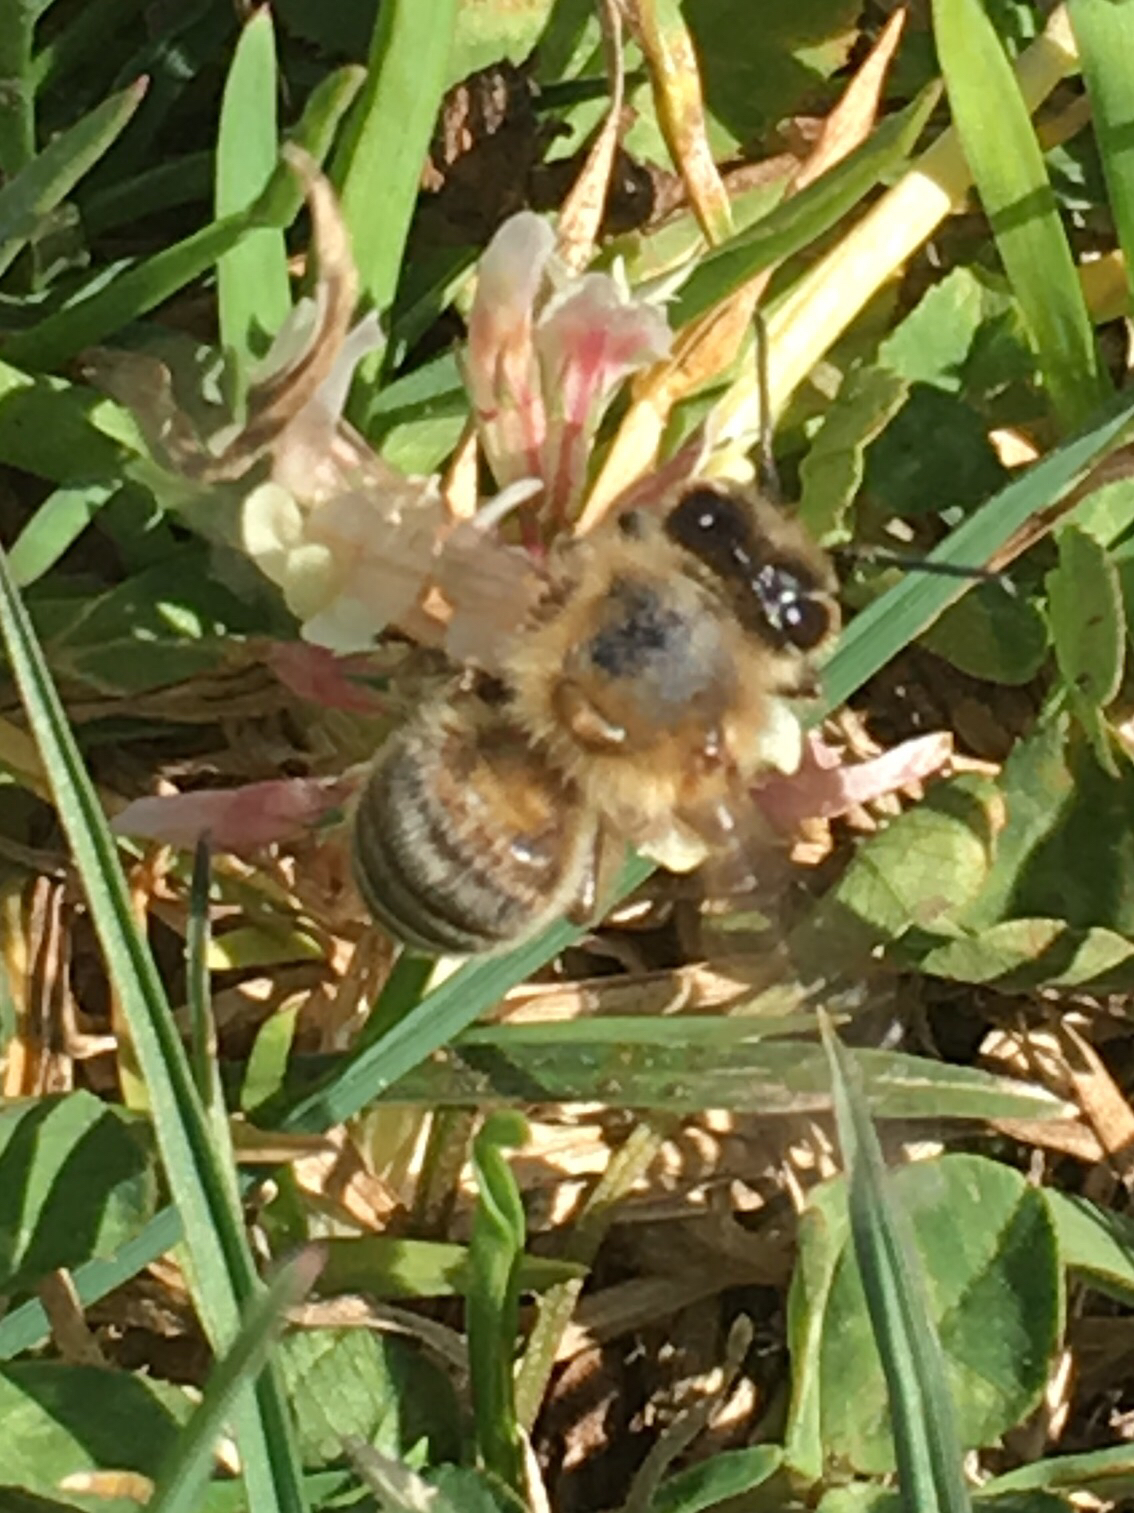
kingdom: Animalia
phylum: Arthropoda
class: Insecta
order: Hymenoptera
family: Apidae
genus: Apis
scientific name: Apis mellifera
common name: Honey bee
